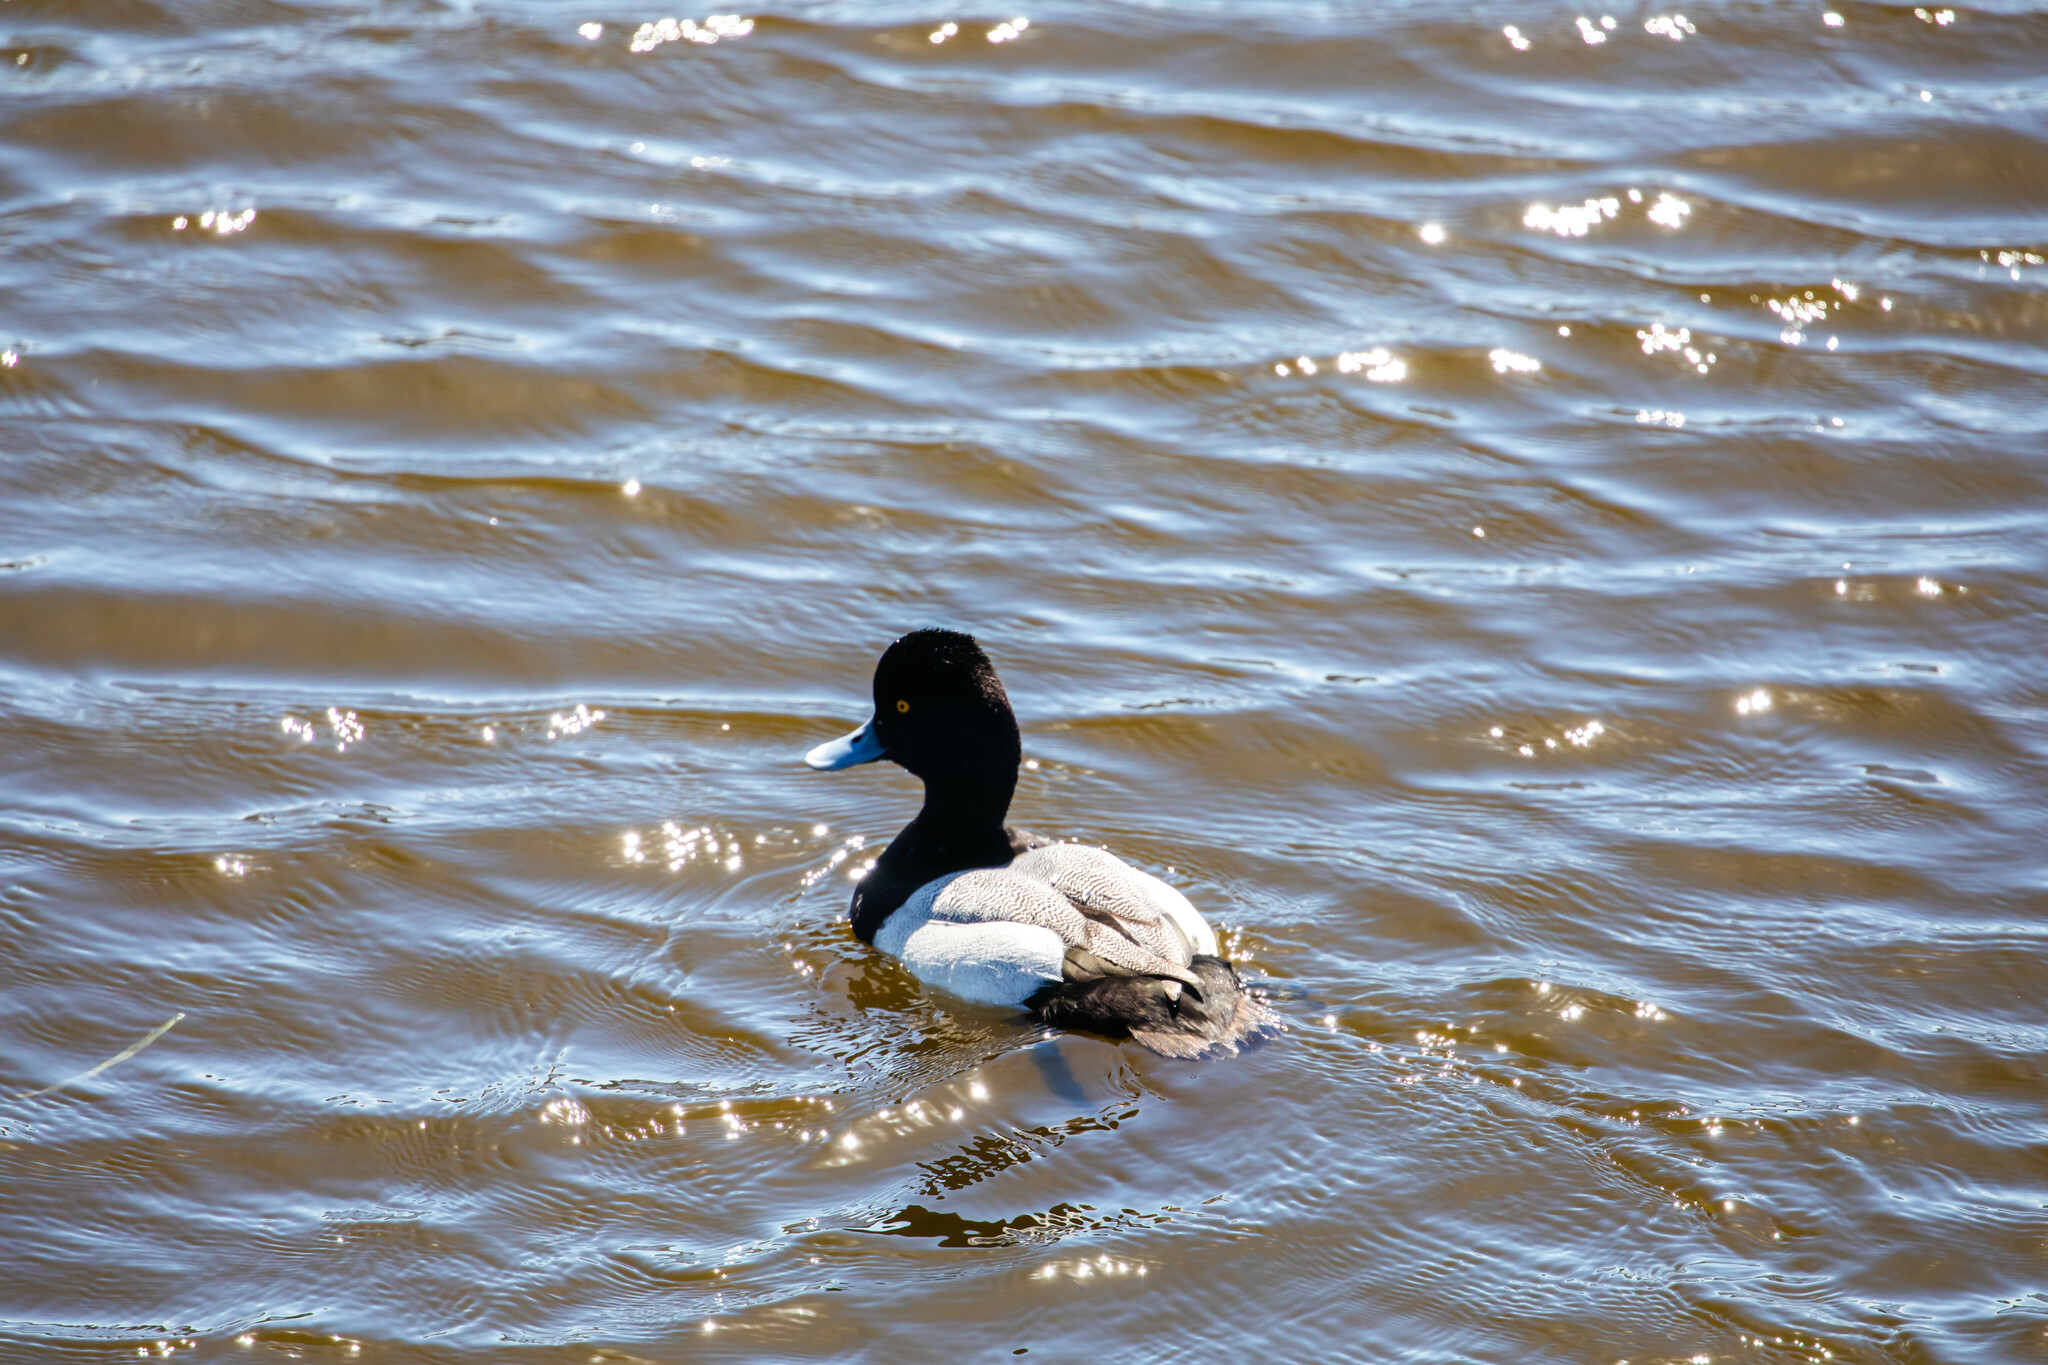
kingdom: Animalia
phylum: Chordata
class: Aves
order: Anseriformes
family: Anatidae
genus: Aythya
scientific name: Aythya affinis
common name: Lesser scaup
